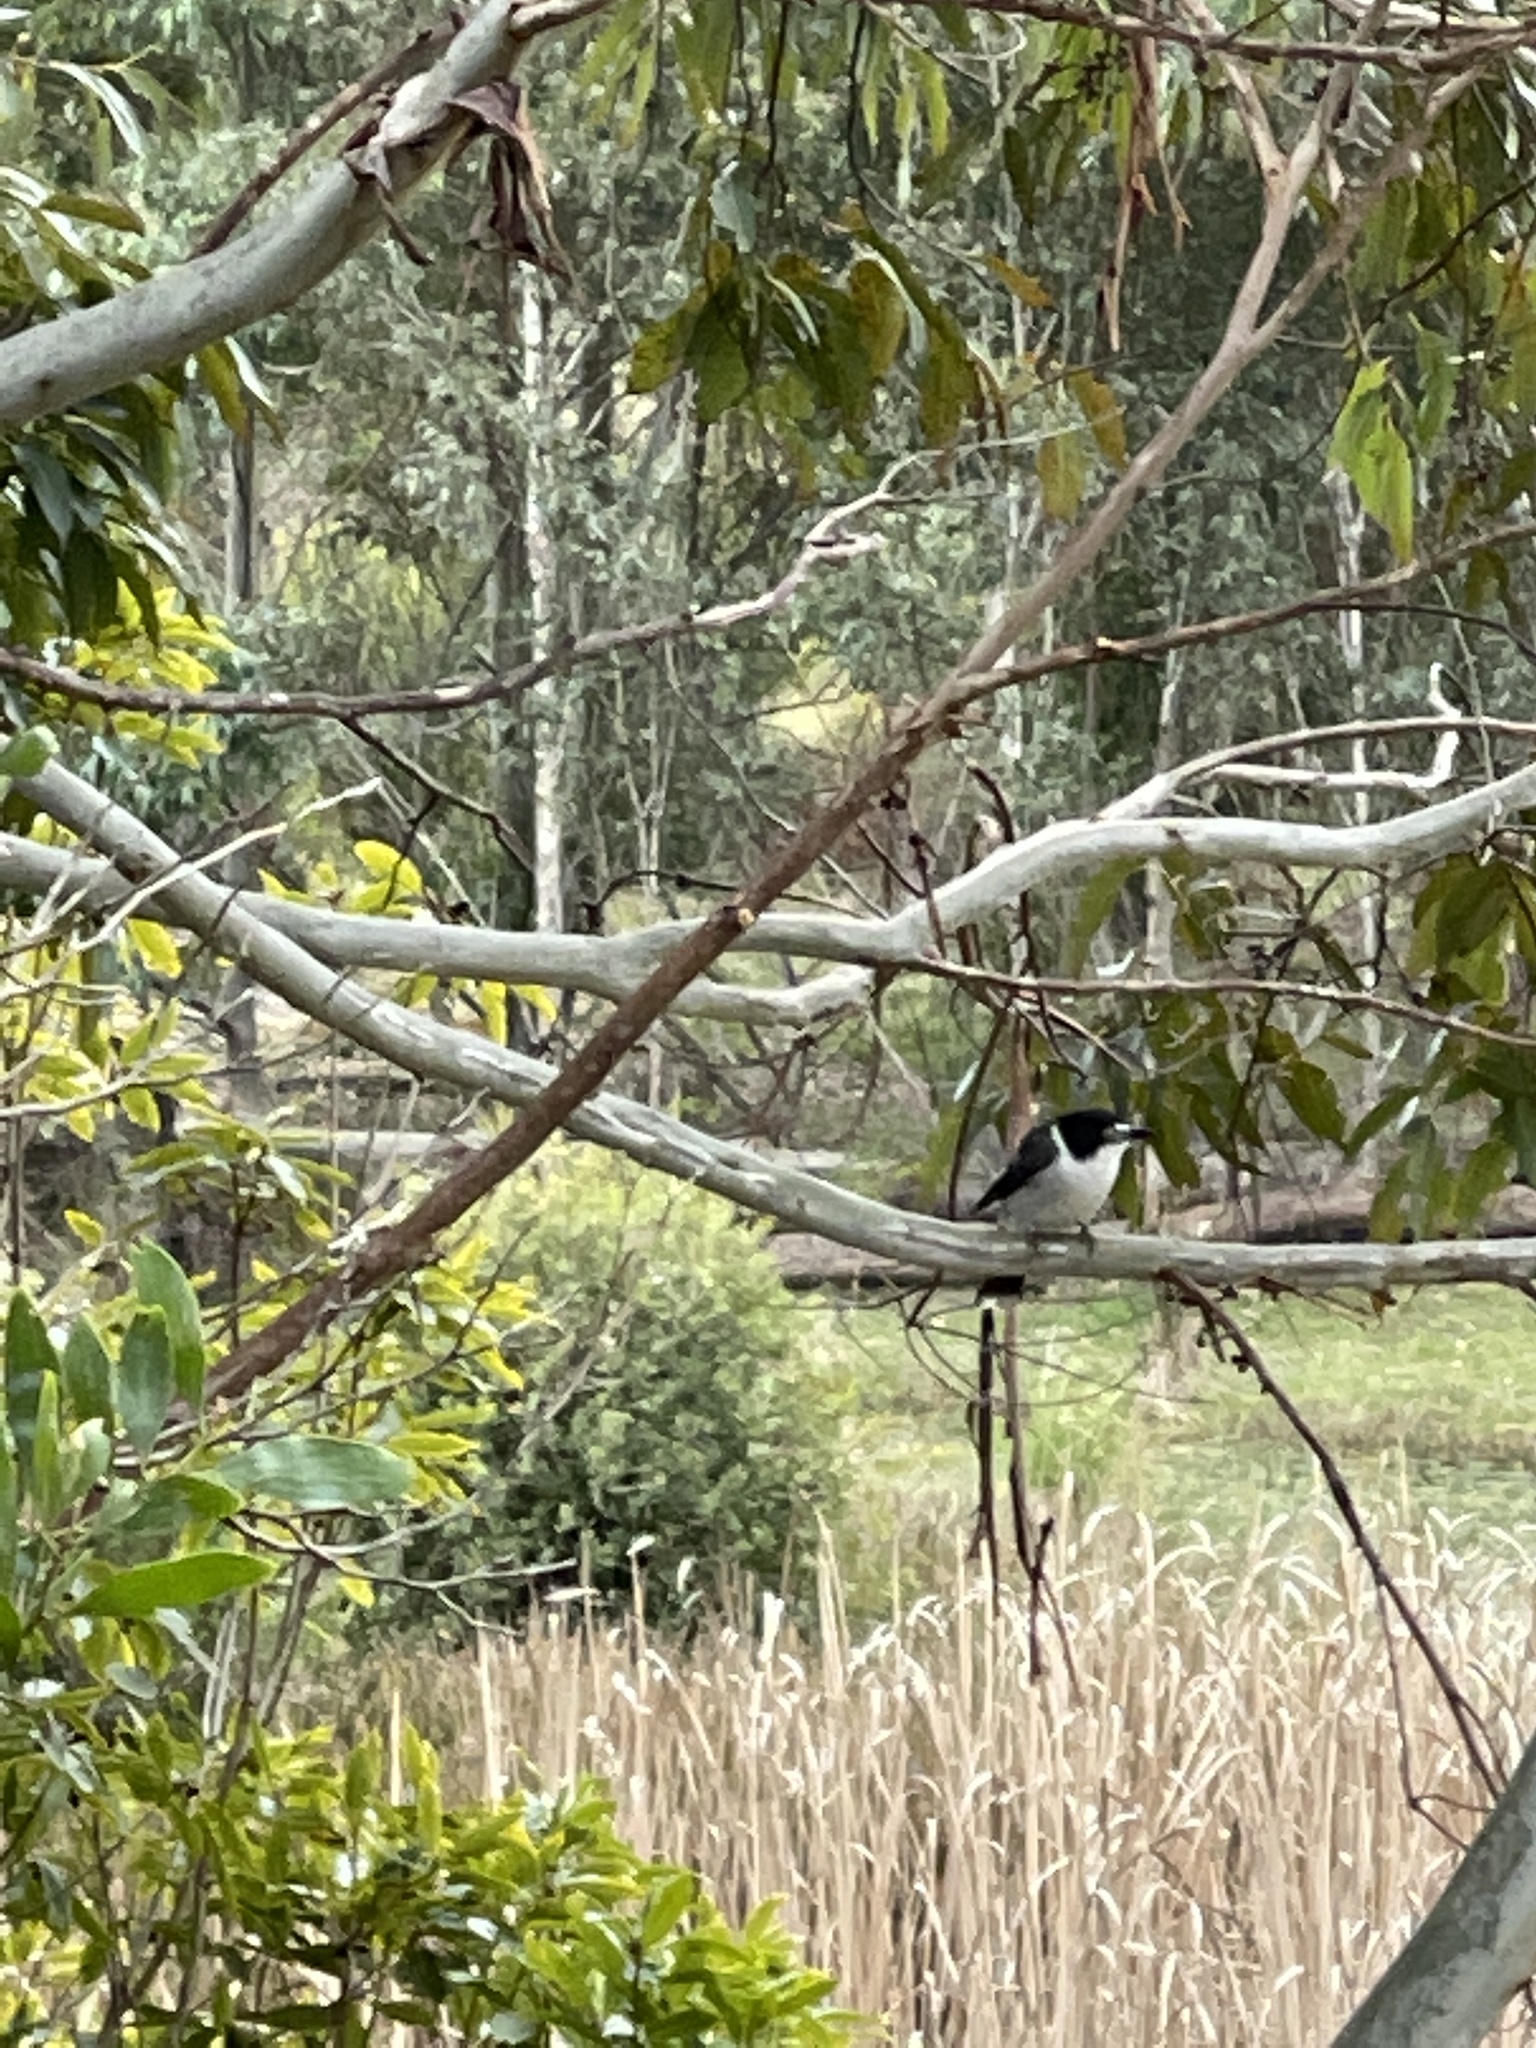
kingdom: Animalia
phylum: Chordata
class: Aves
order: Passeriformes
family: Cracticidae
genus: Cracticus
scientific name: Cracticus torquatus
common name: Grey butcherbird
